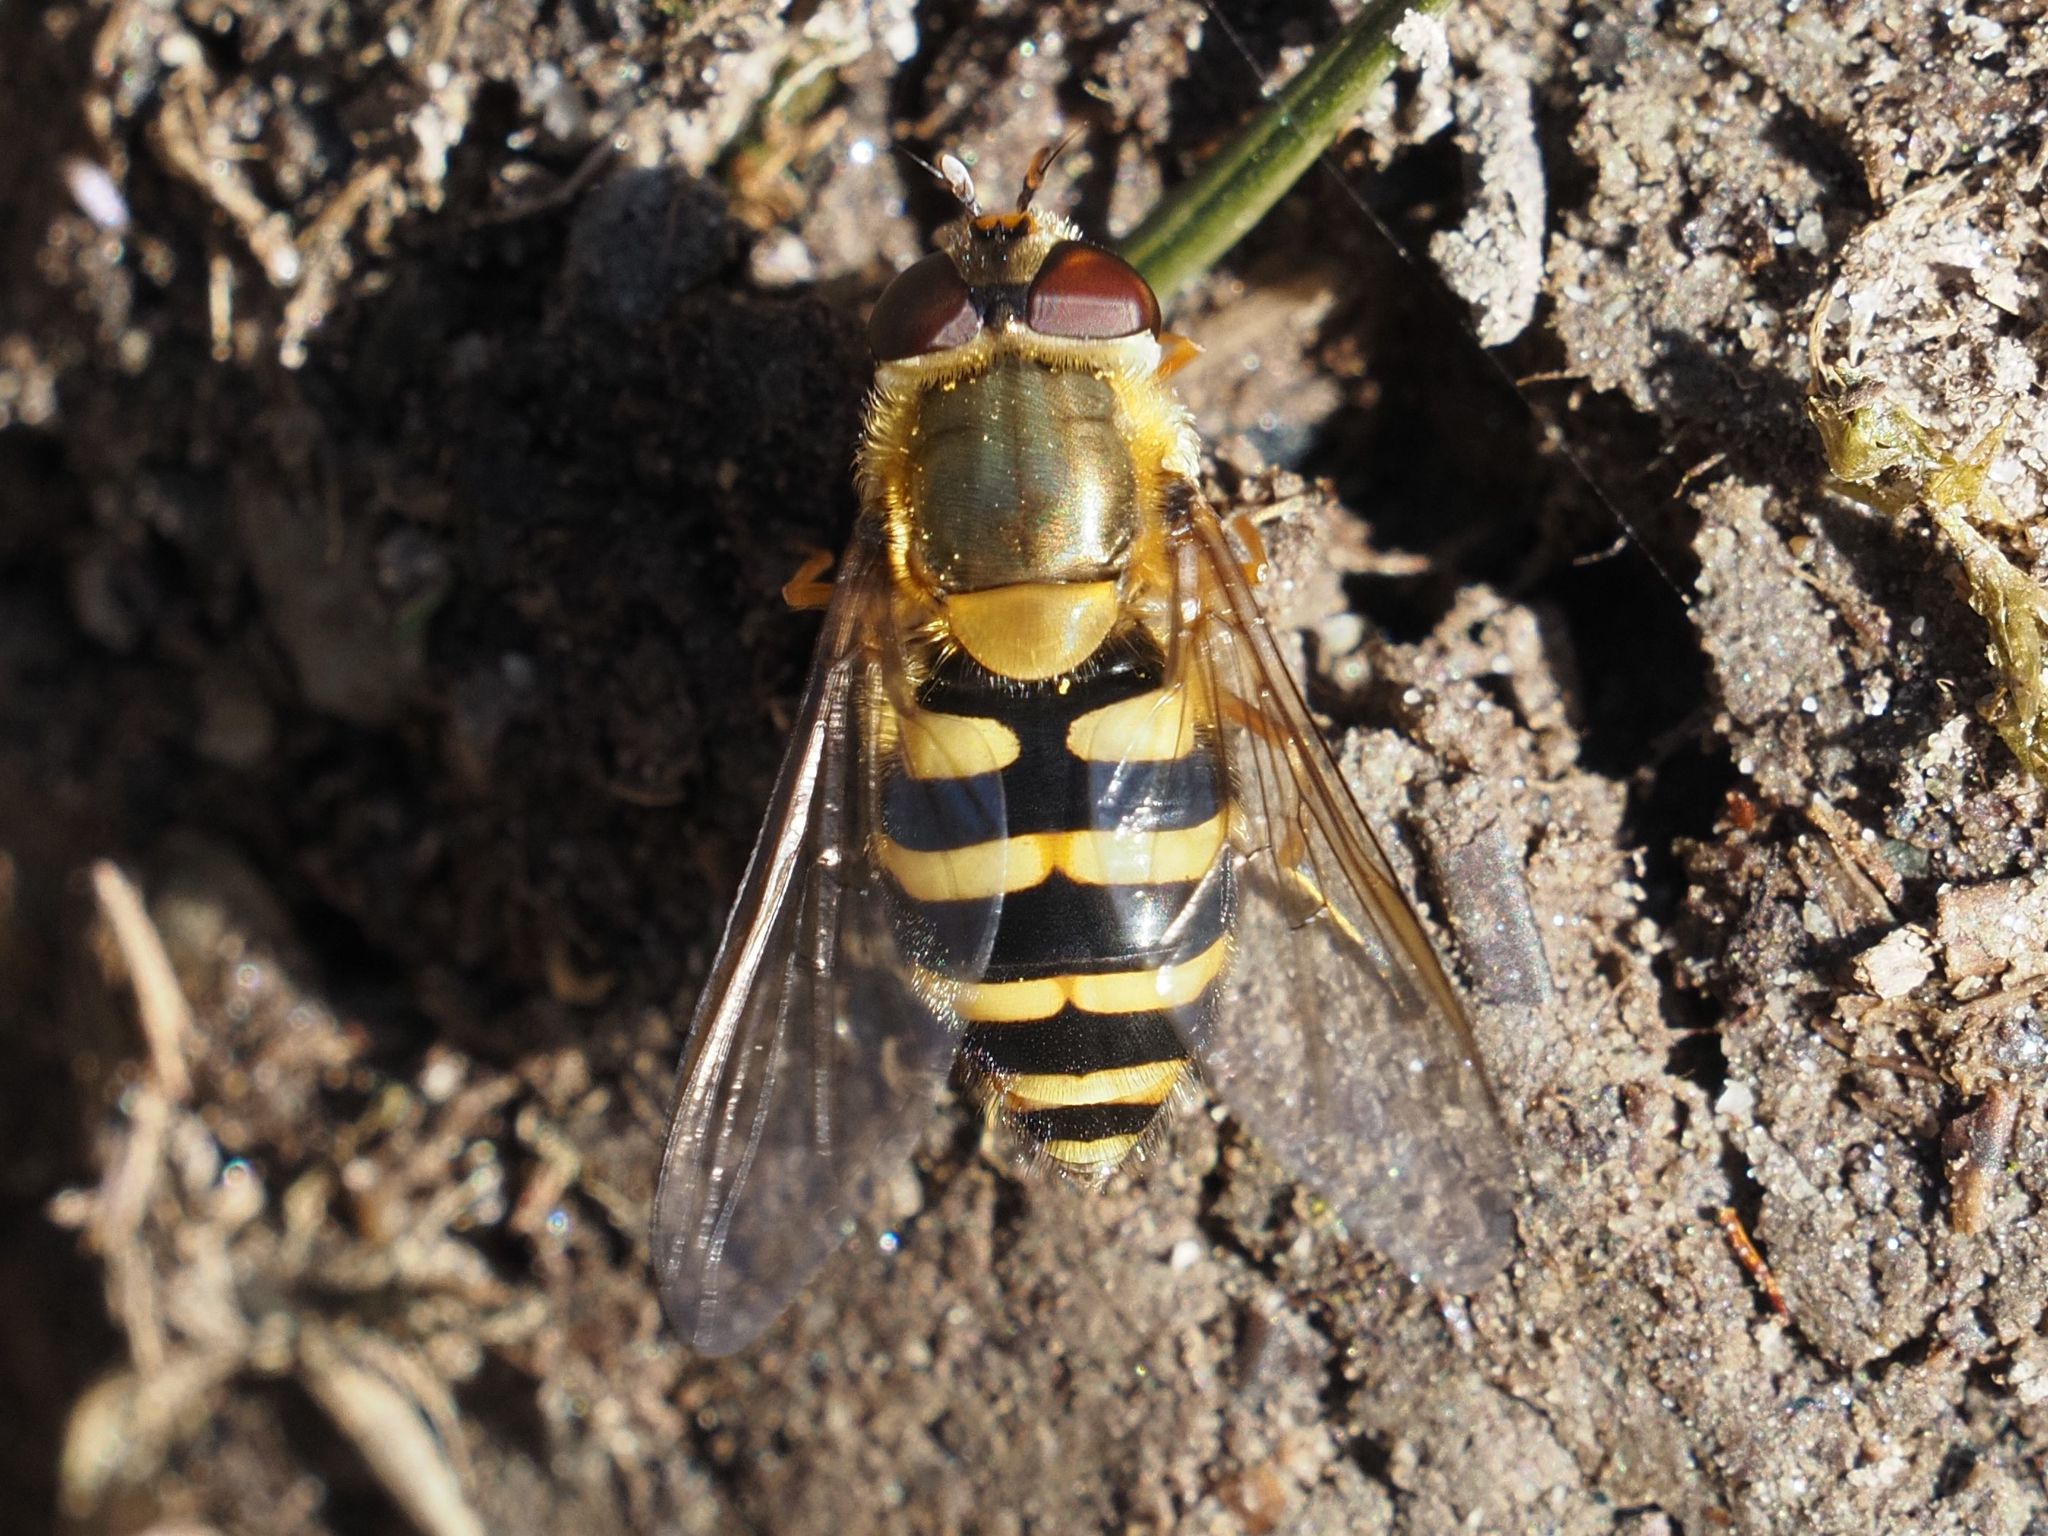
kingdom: Animalia
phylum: Arthropoda
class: Insecta
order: Diptera
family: Syrphidae
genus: Syrphus
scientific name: Syrphus
